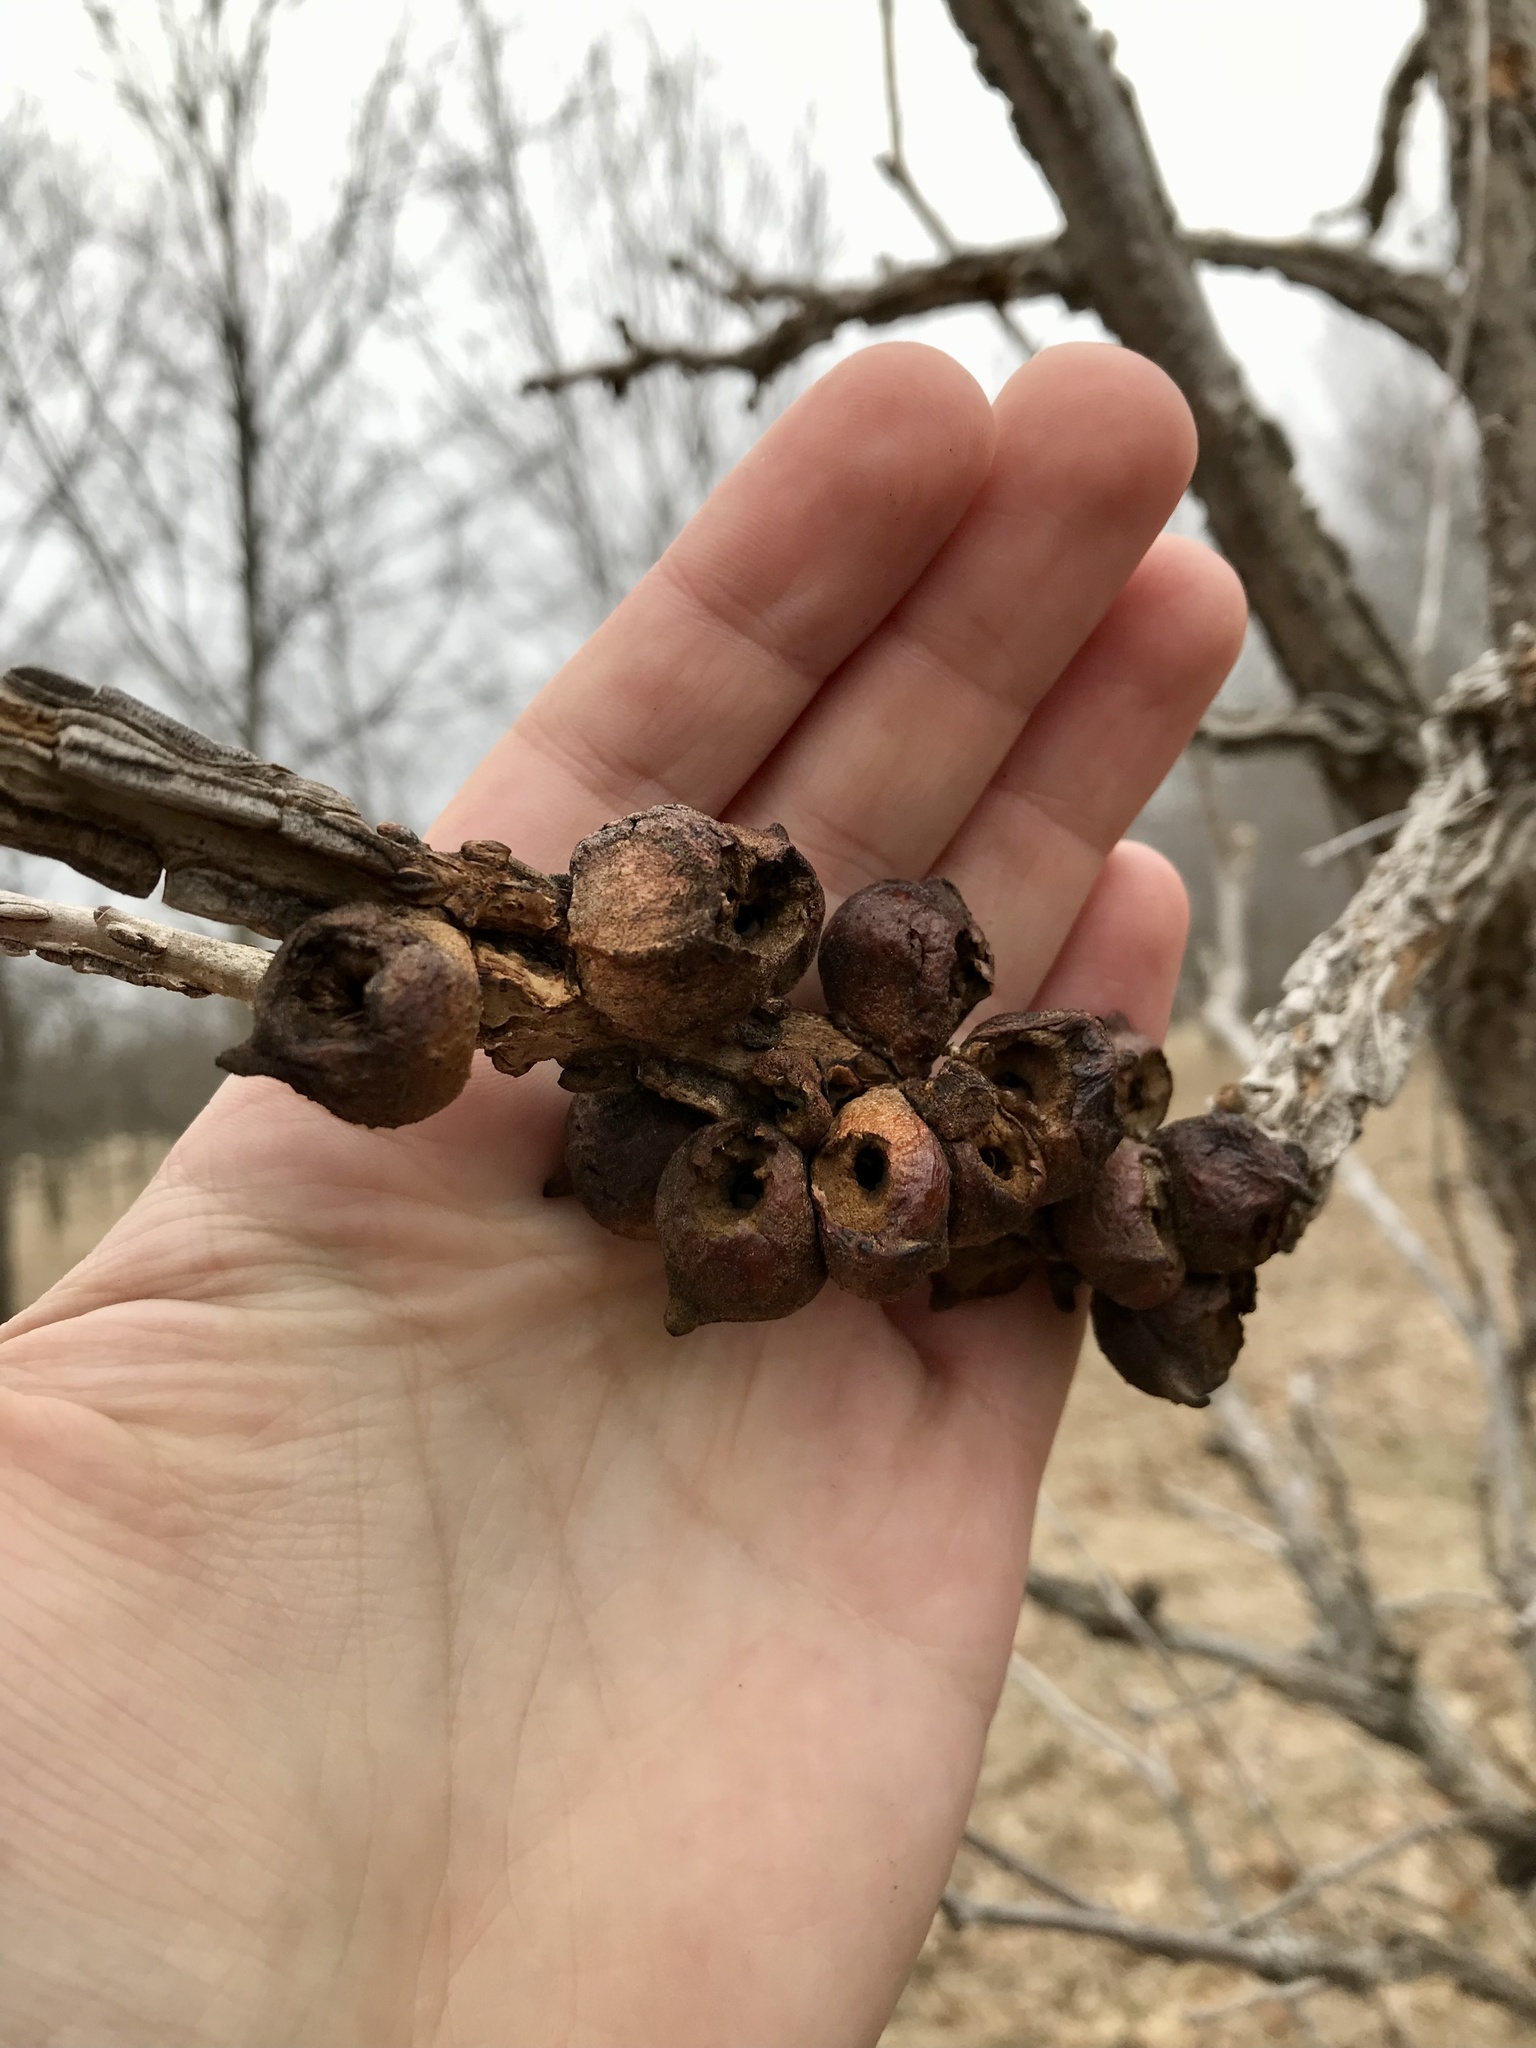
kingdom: Animalia
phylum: Arthropoda
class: Insecta
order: Hymenoptera
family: Cynipidae
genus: Disholcaspis
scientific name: Disholcaspis
